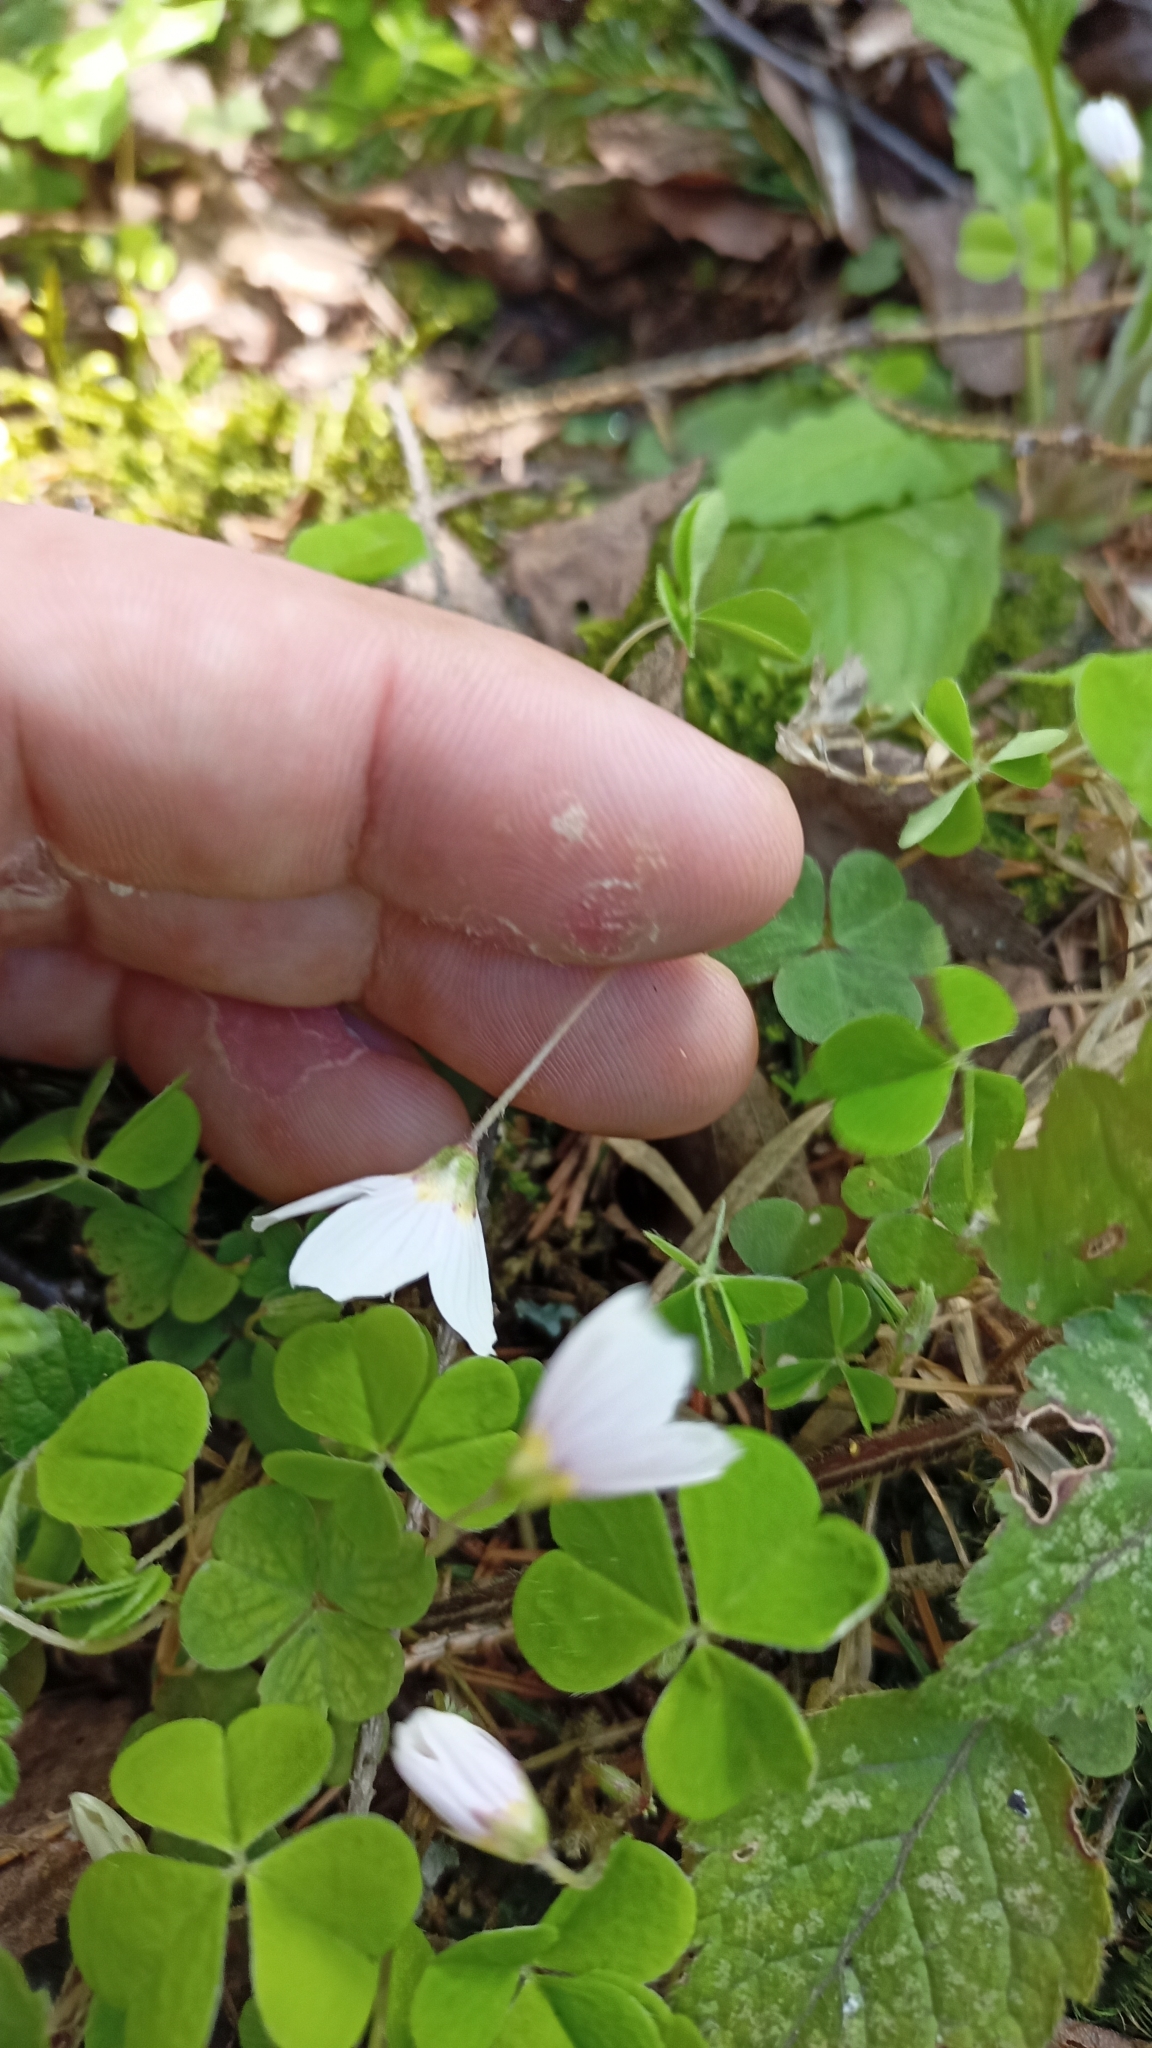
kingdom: Plantae
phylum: Tracheophyta
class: Magnoliopsida
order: Oxalidales
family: Oxalidaceae
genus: Oxalis
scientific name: Oxalis acetosella
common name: Wood-sorrel
